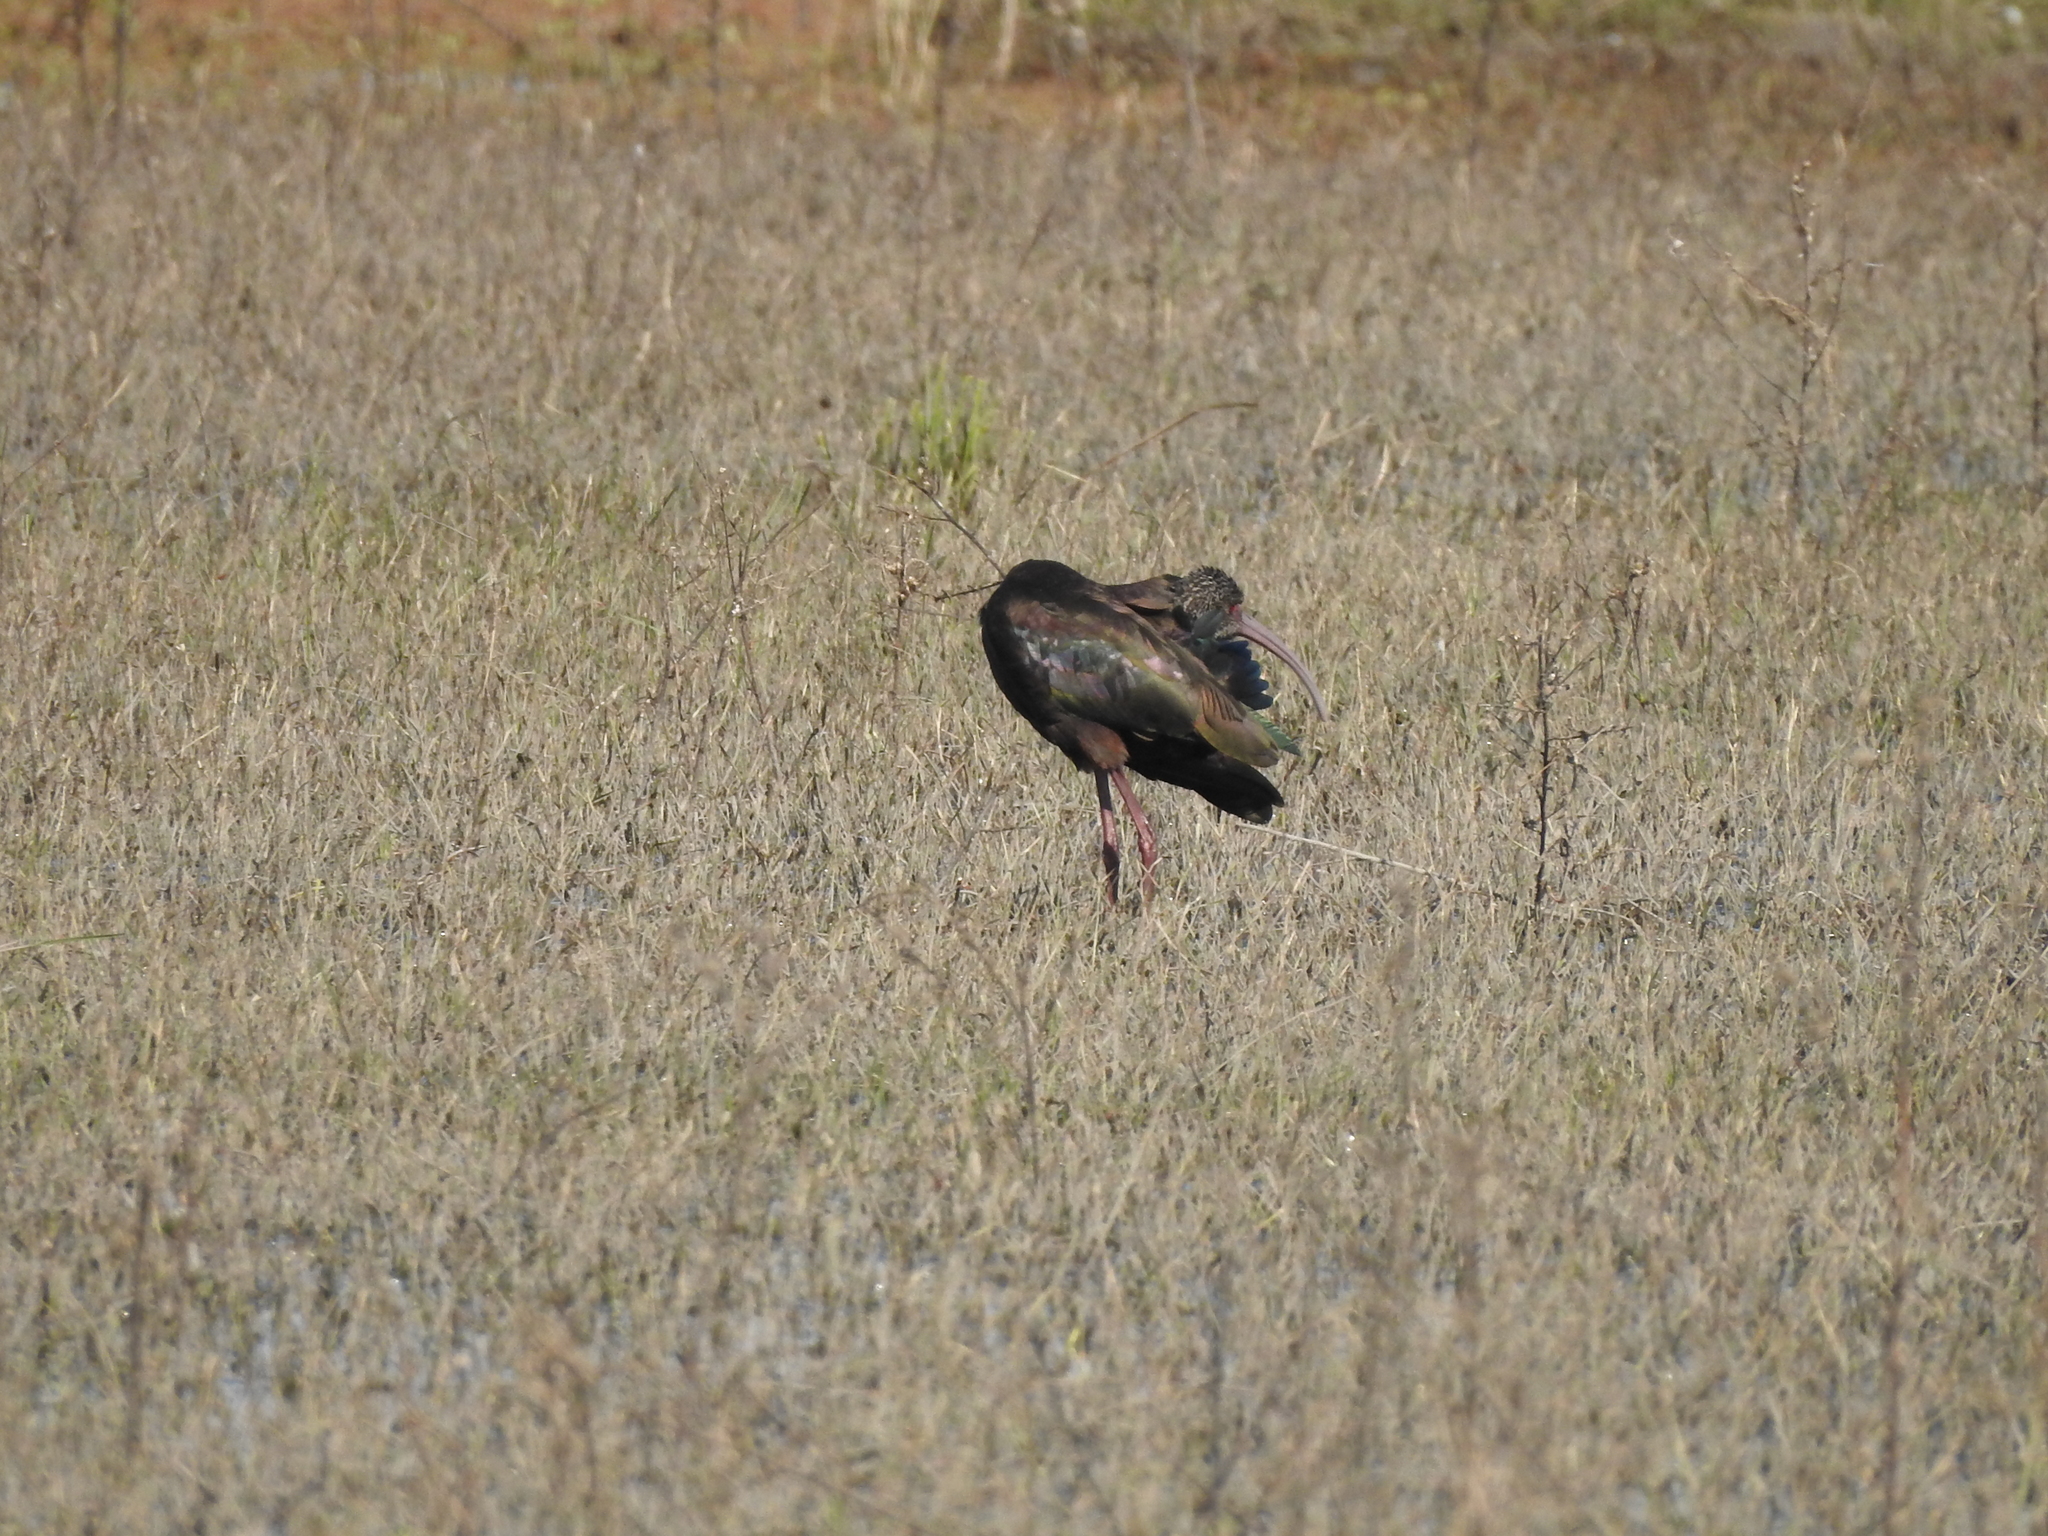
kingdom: Animalia
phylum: Chordata
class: Aves
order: Pelecaniformes
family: Threskiornithidae
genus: Plegadis
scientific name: Plegadis chihi
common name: White-faced ibis
